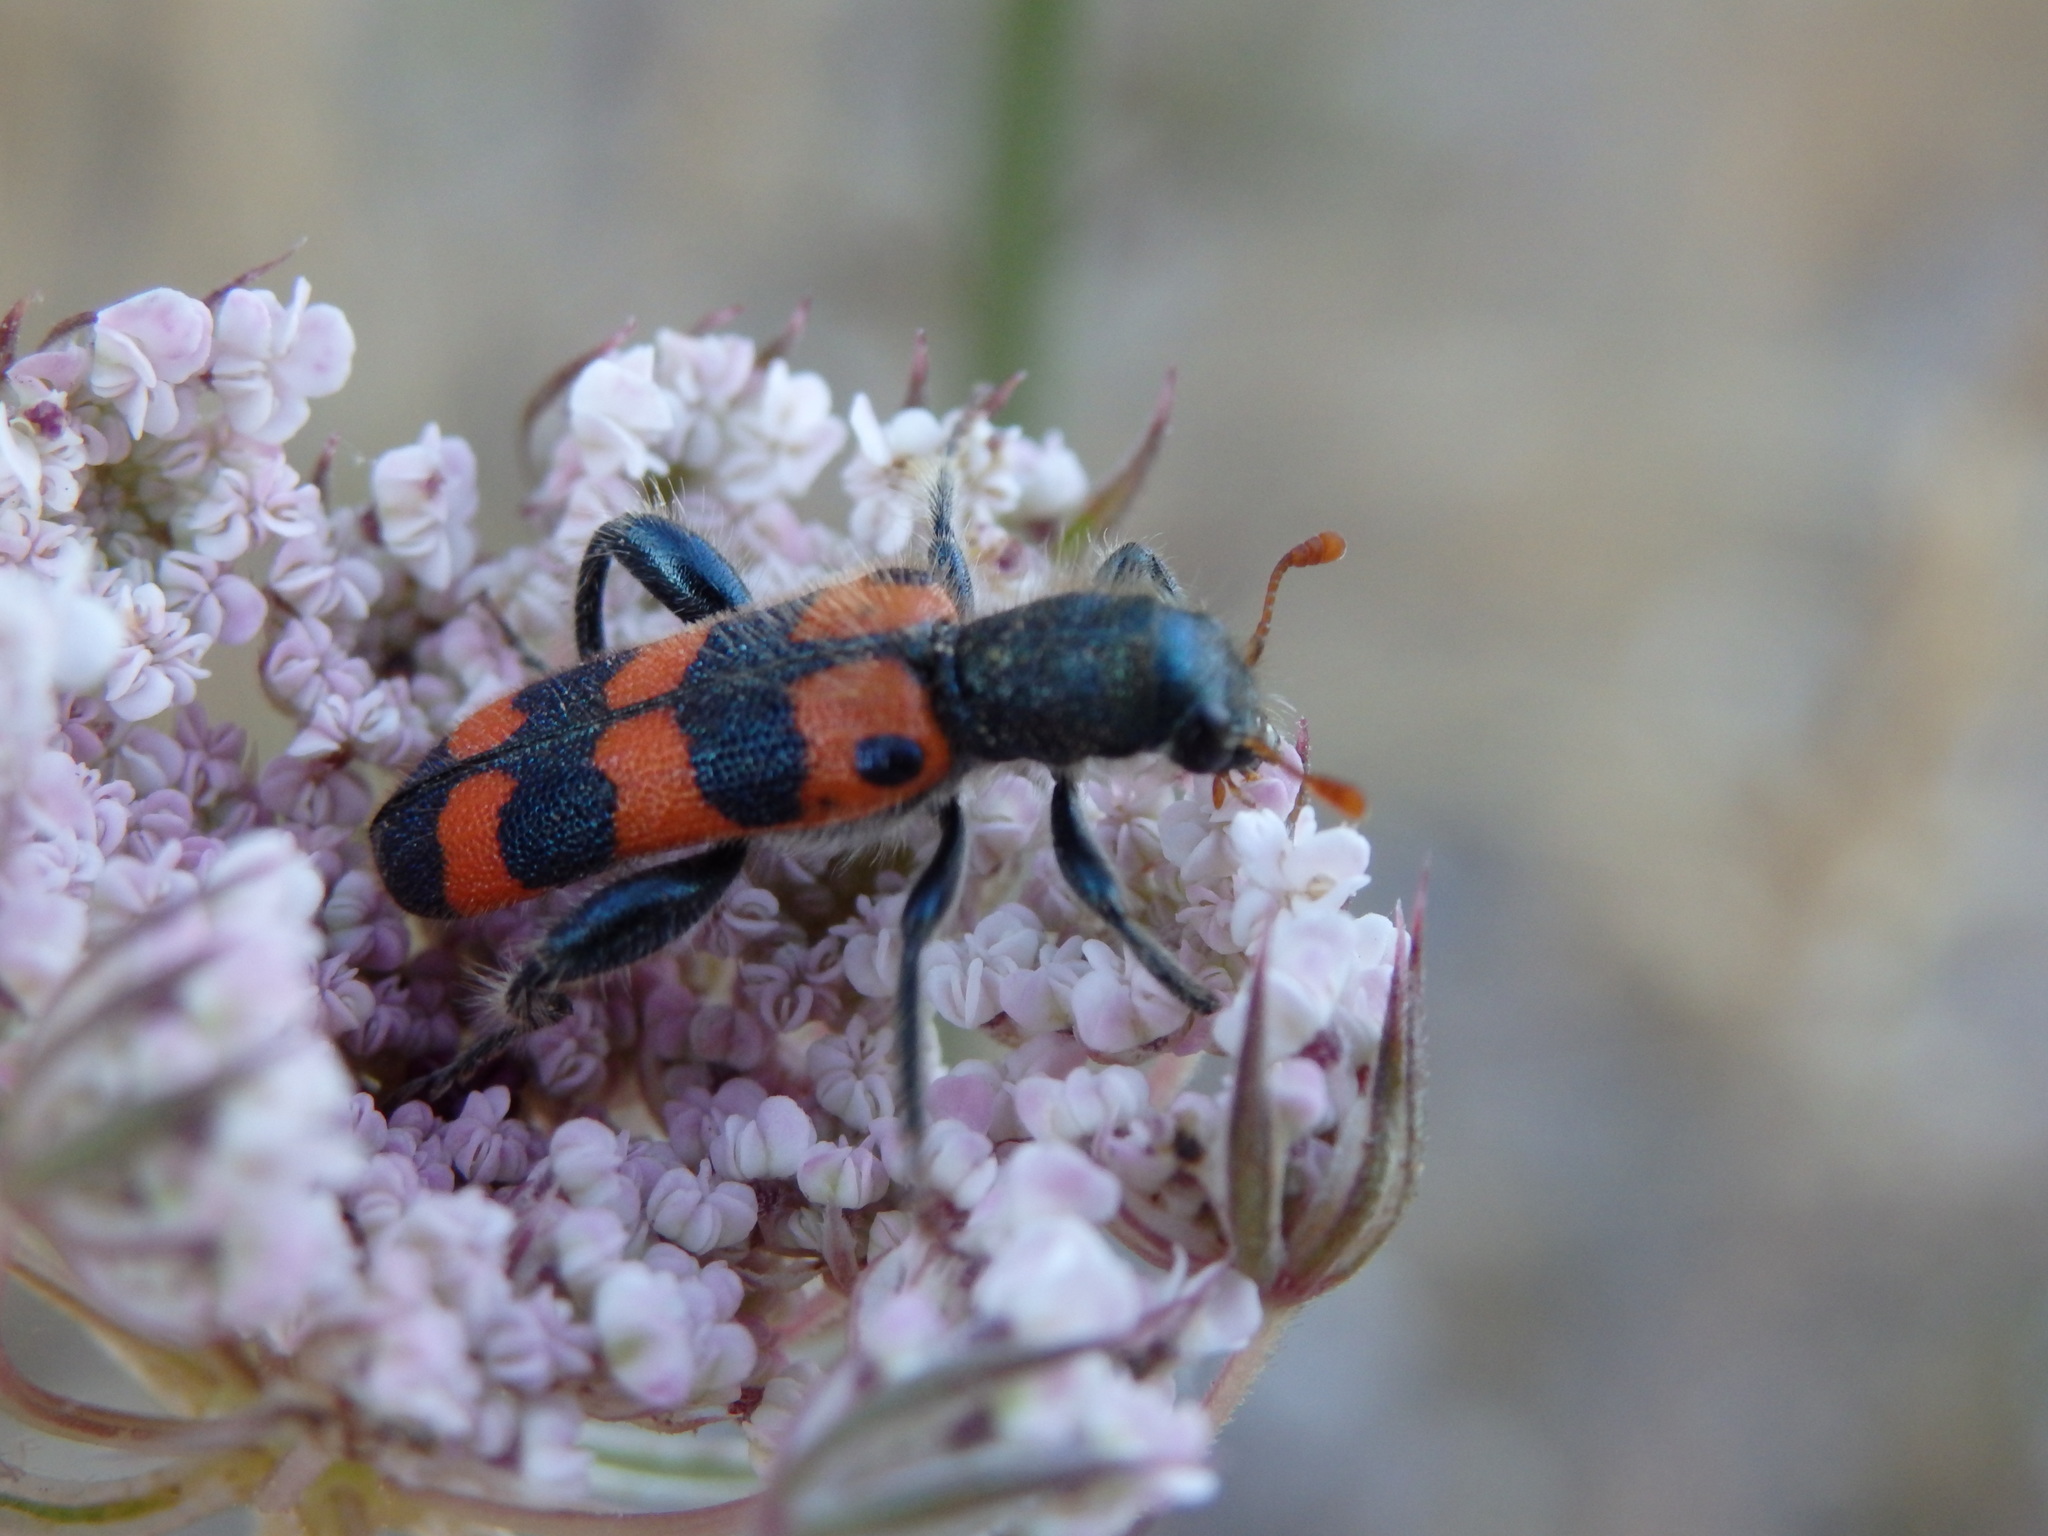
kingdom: Animalia
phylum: Arthropoda
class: Insecta
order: Coleoptera
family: Cleridae
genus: Trichodes
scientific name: Trichodes leucopsideus
